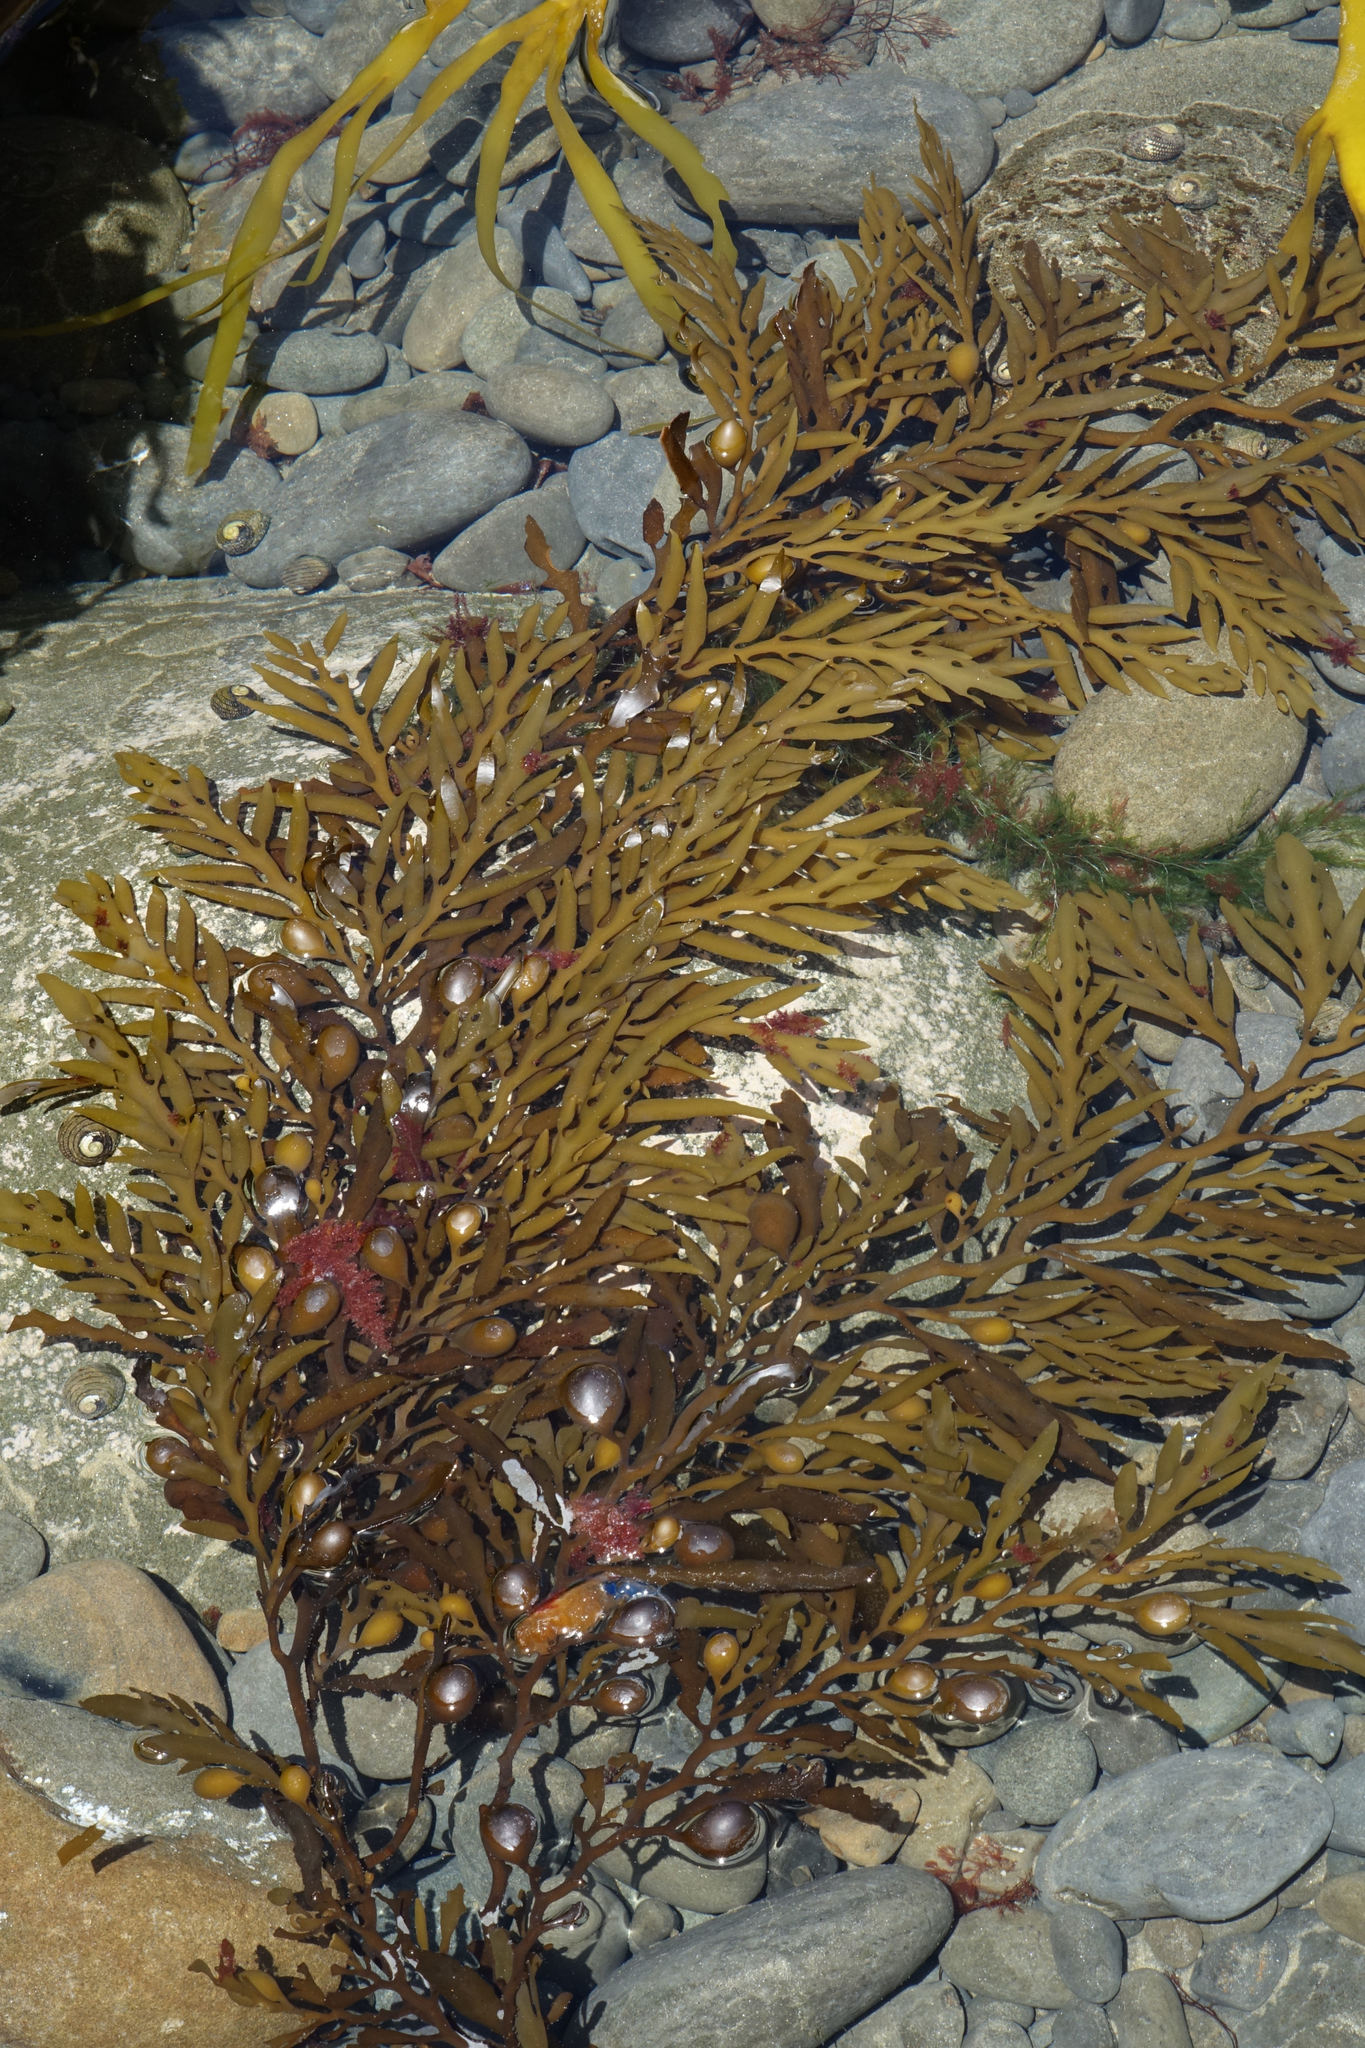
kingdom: Chromista
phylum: Ochrophyta
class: Phaeophyceae
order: Fucales
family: Sargassaceae
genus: Cystophora
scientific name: Cystophora platylobium
